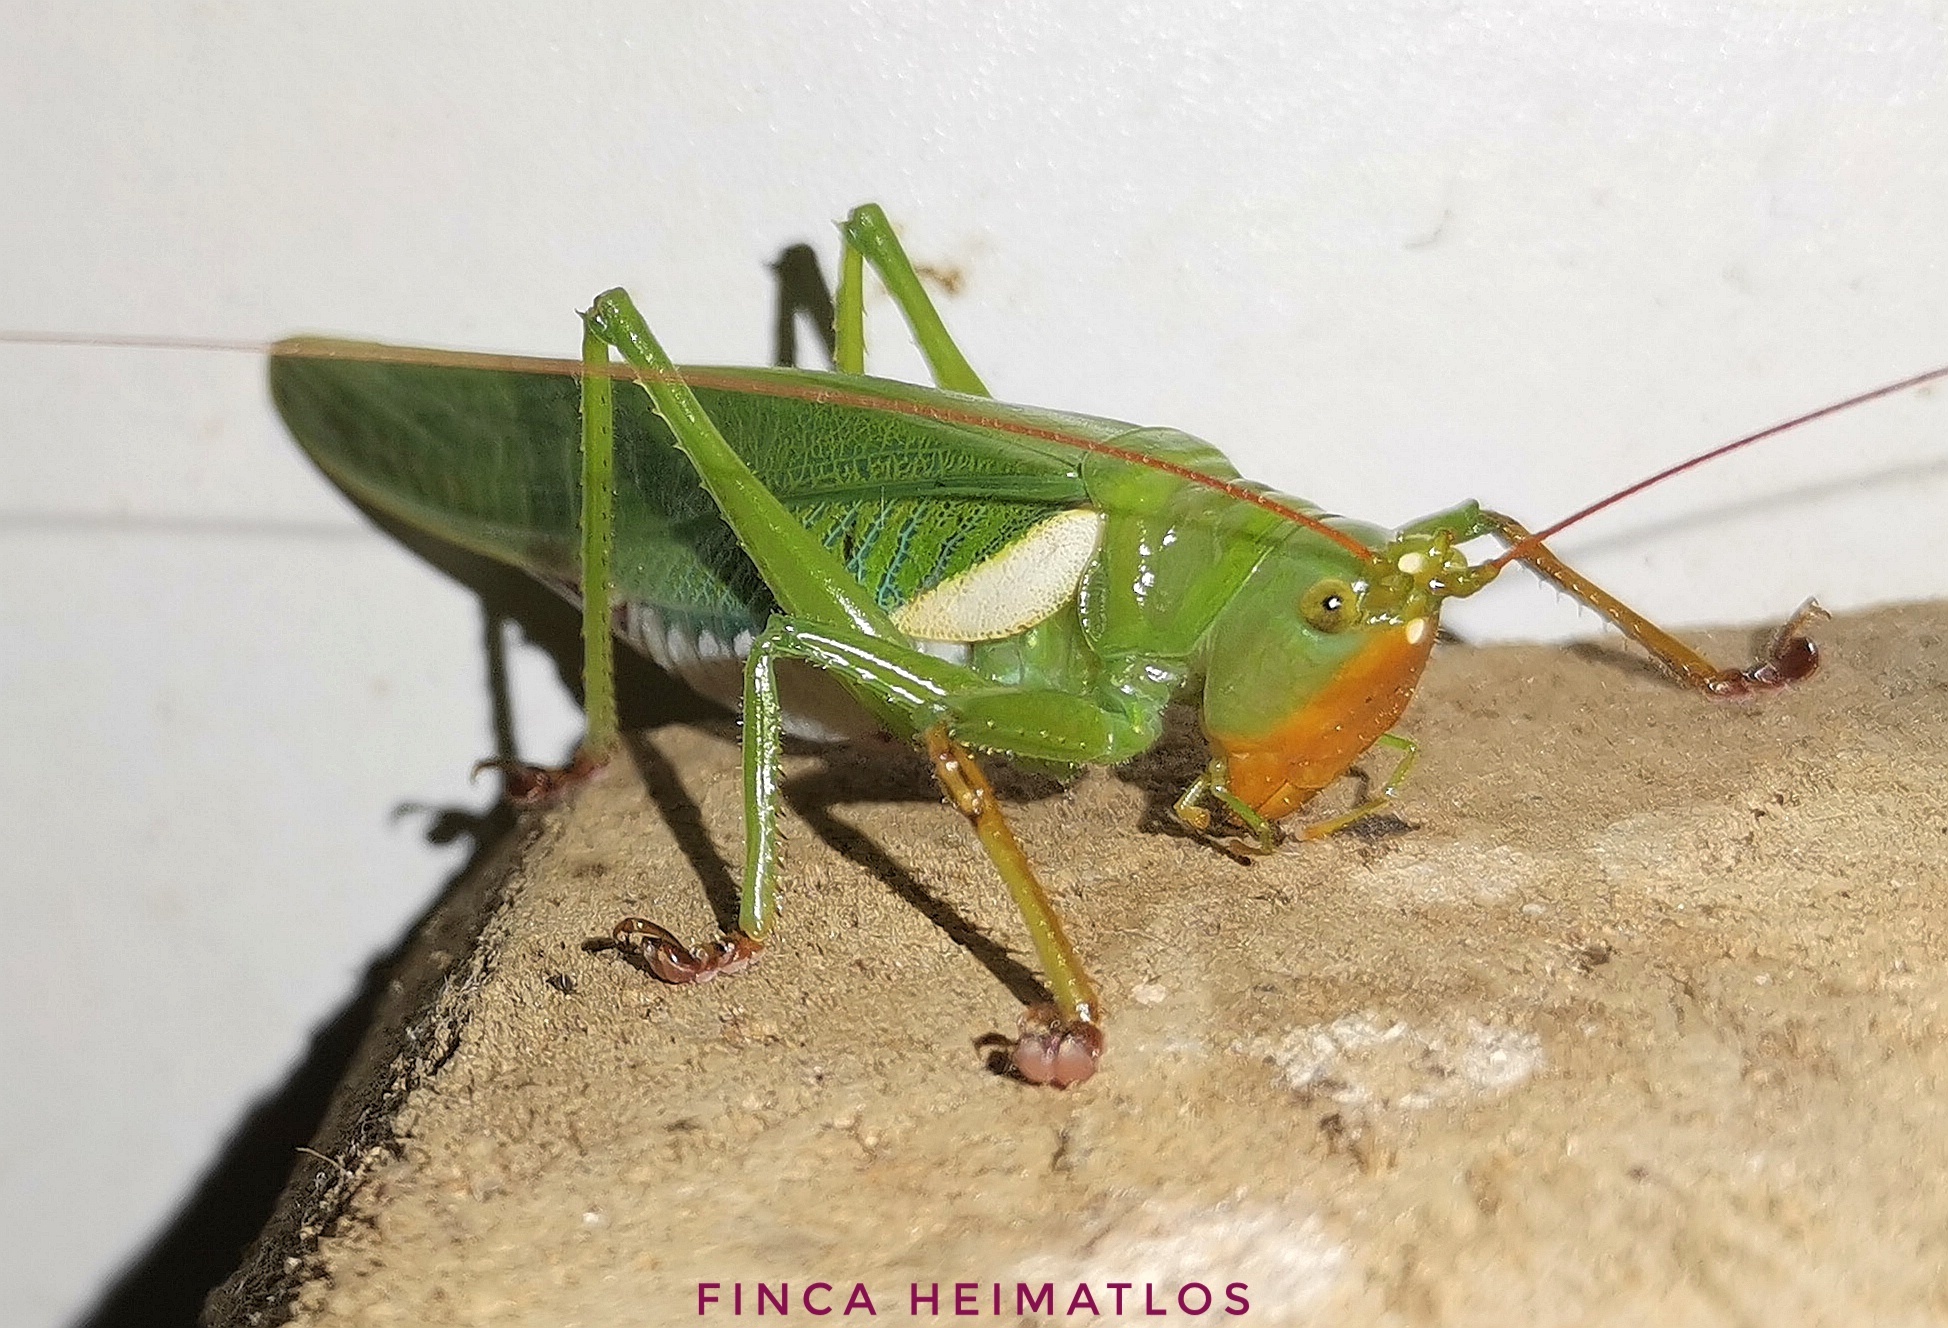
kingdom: Animalia
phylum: Arthropoda
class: Insecta
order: Orthoptera
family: Tettigoniidae
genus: Moncheca
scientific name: Moncheca bisulca
